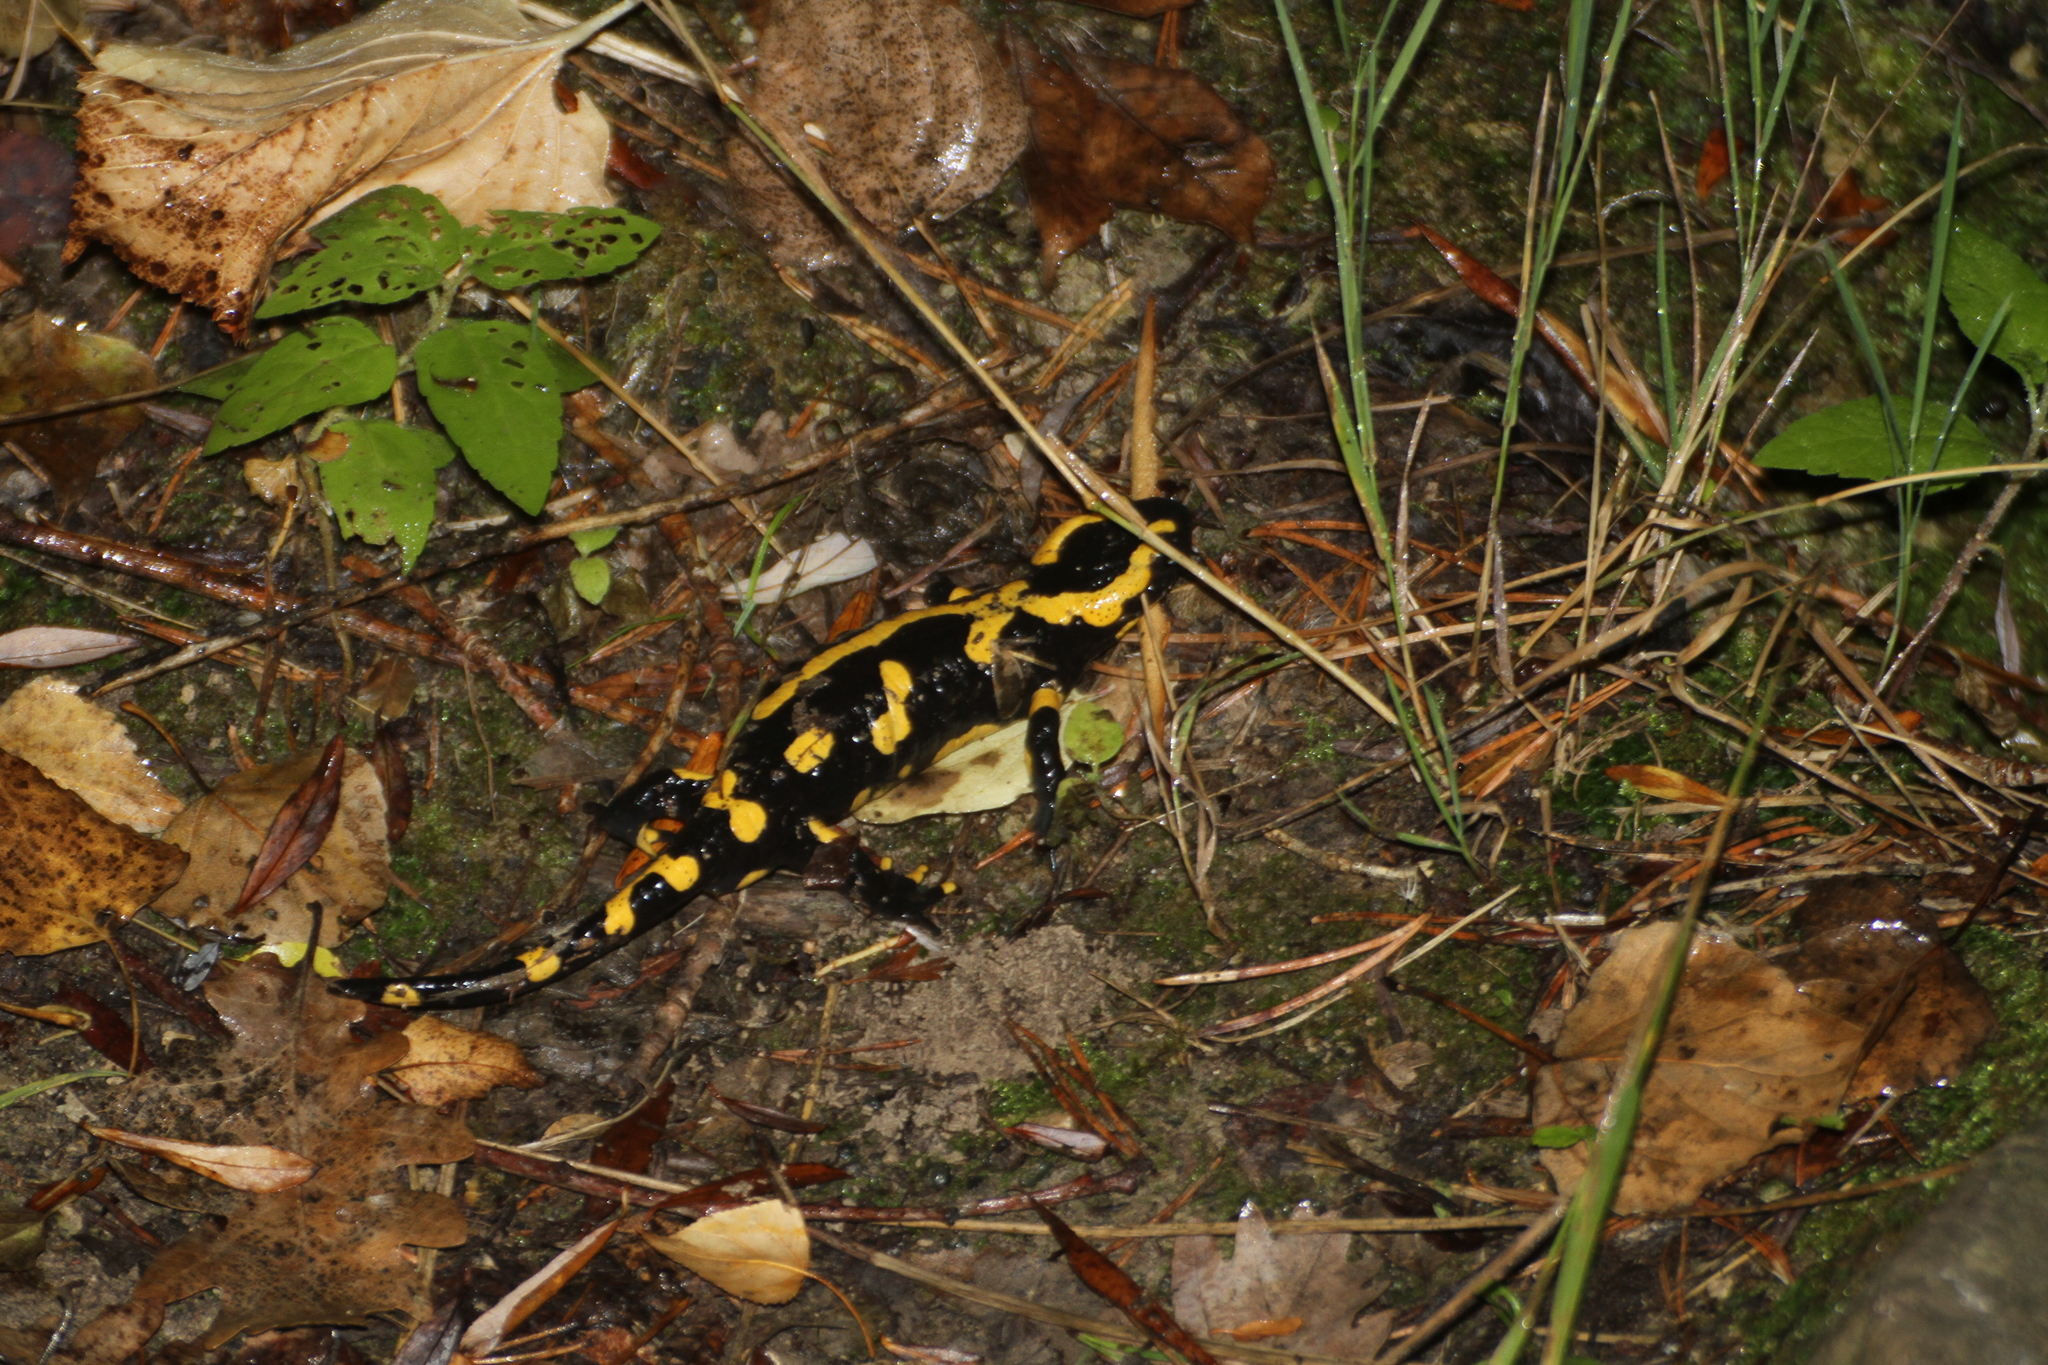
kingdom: Animalia
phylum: Chordata
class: Amphibia
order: Caudata
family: Salamandridae
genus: Salamandra
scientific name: Salamandra salamandra
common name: Fire salamander
